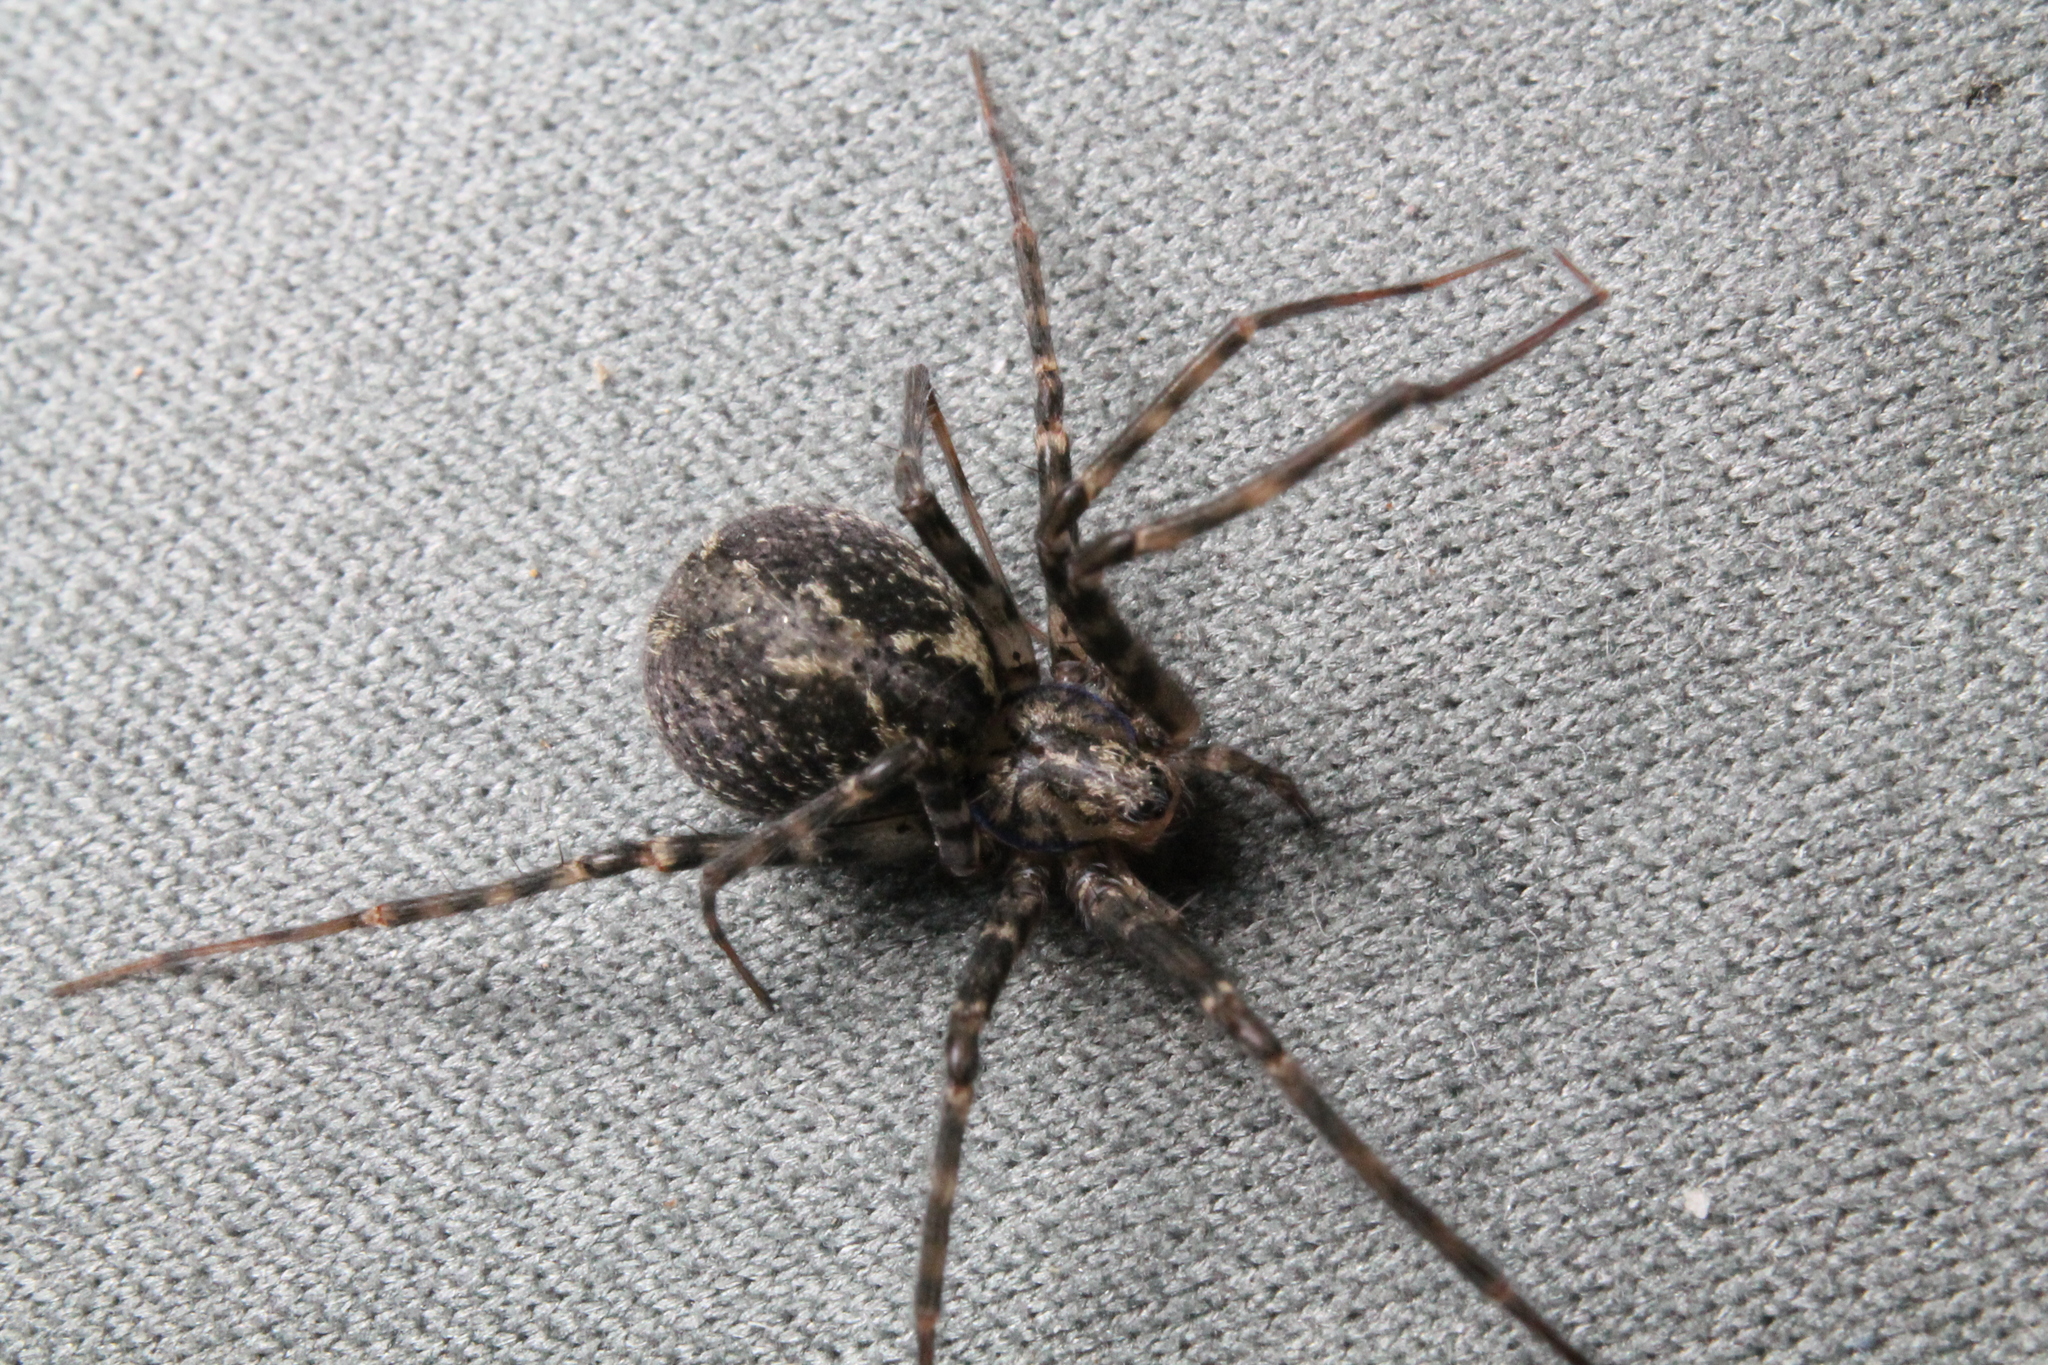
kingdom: Animalia
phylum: Arthropoda
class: Arachnida
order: Araneae
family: Stiphidiidae
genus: Stiphidion
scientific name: Stiphidion facetum
